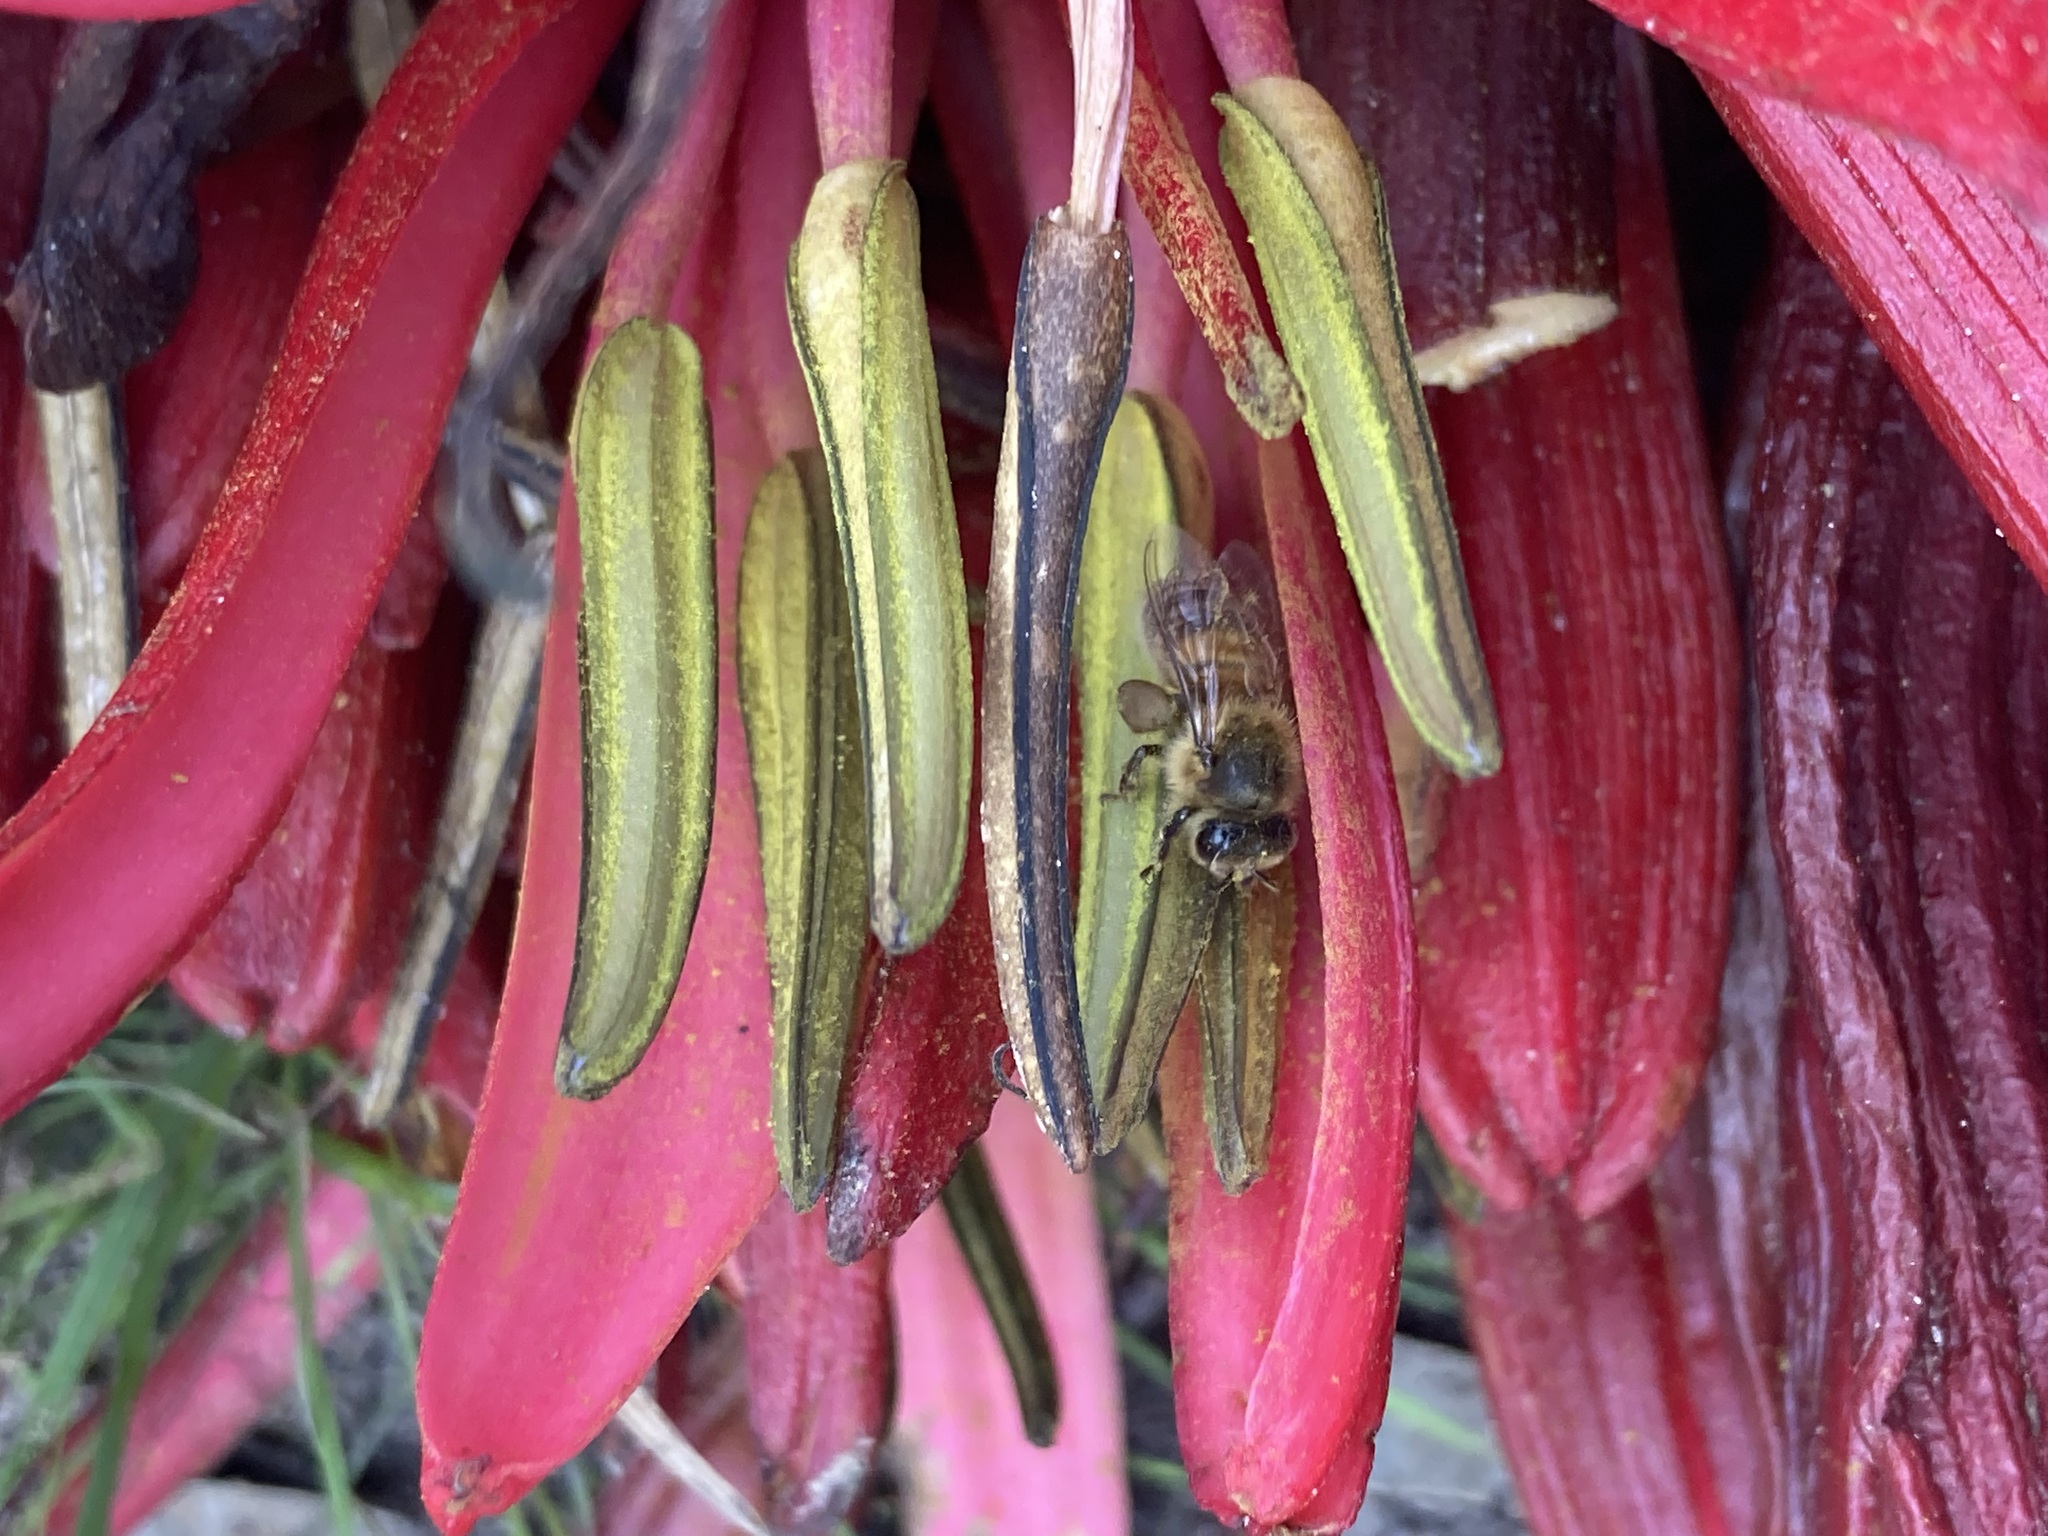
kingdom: Animalia
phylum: Arthropoda
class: Insecta
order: Hymenoptera
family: Apidae
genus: Apis
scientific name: Apis mellifera
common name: Honey bee
